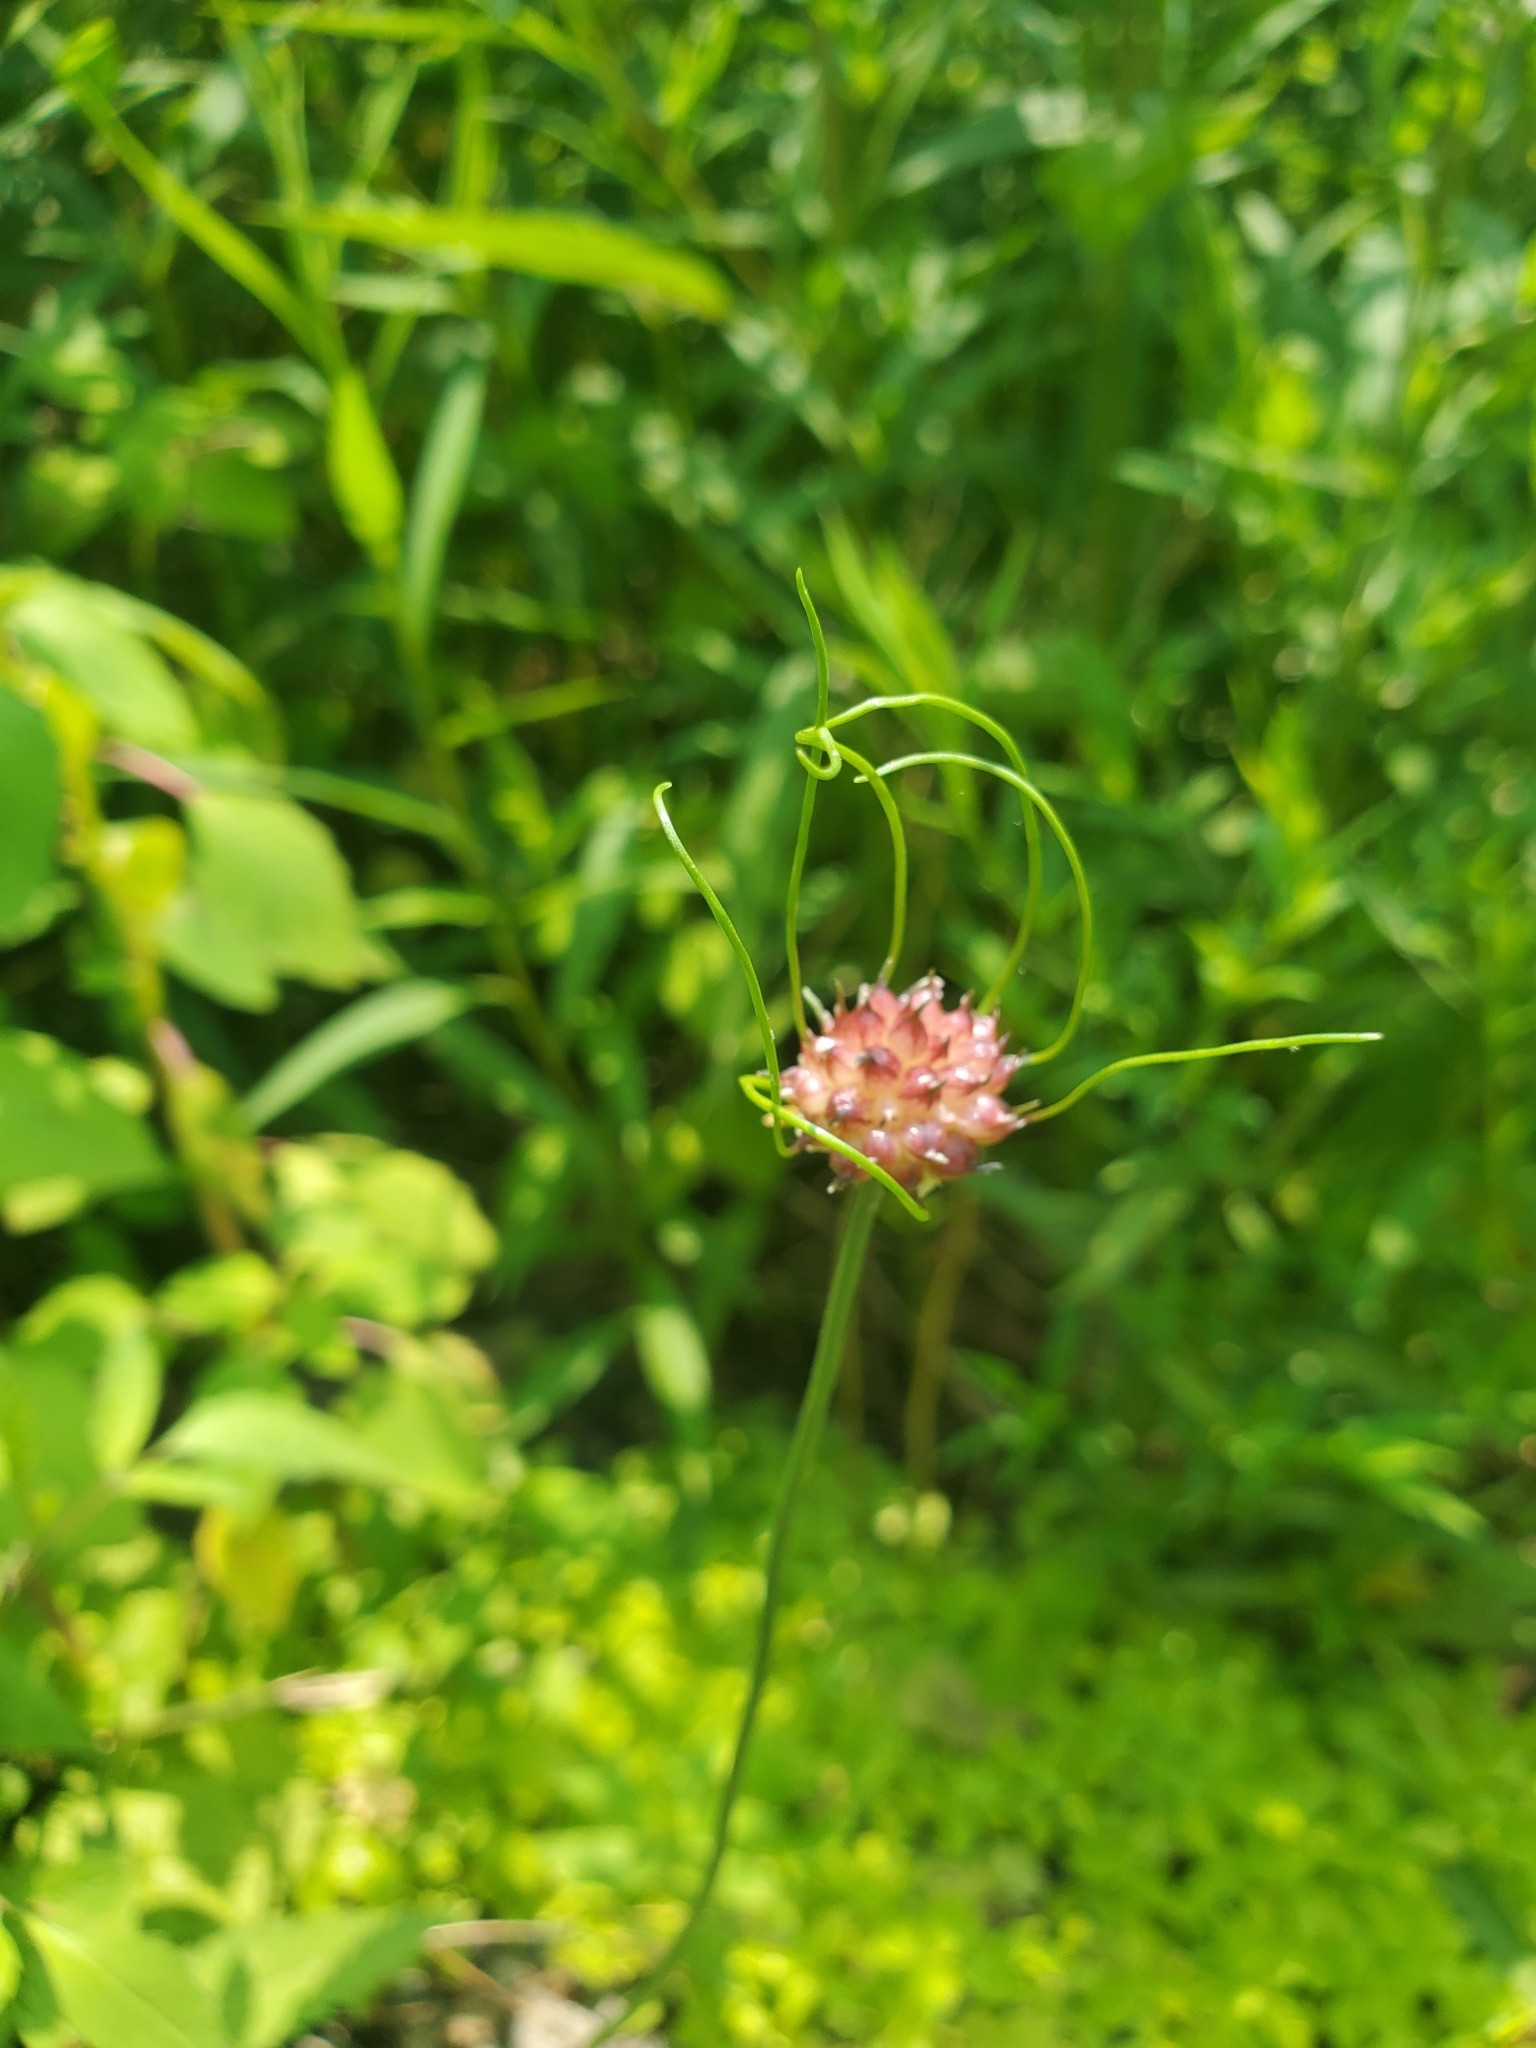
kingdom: Plantae
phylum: Tracheophyta
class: Liliopsida
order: Asparagales
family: Amaryllidaceae
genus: Allium
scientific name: Allium vineale
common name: Crow garlic
